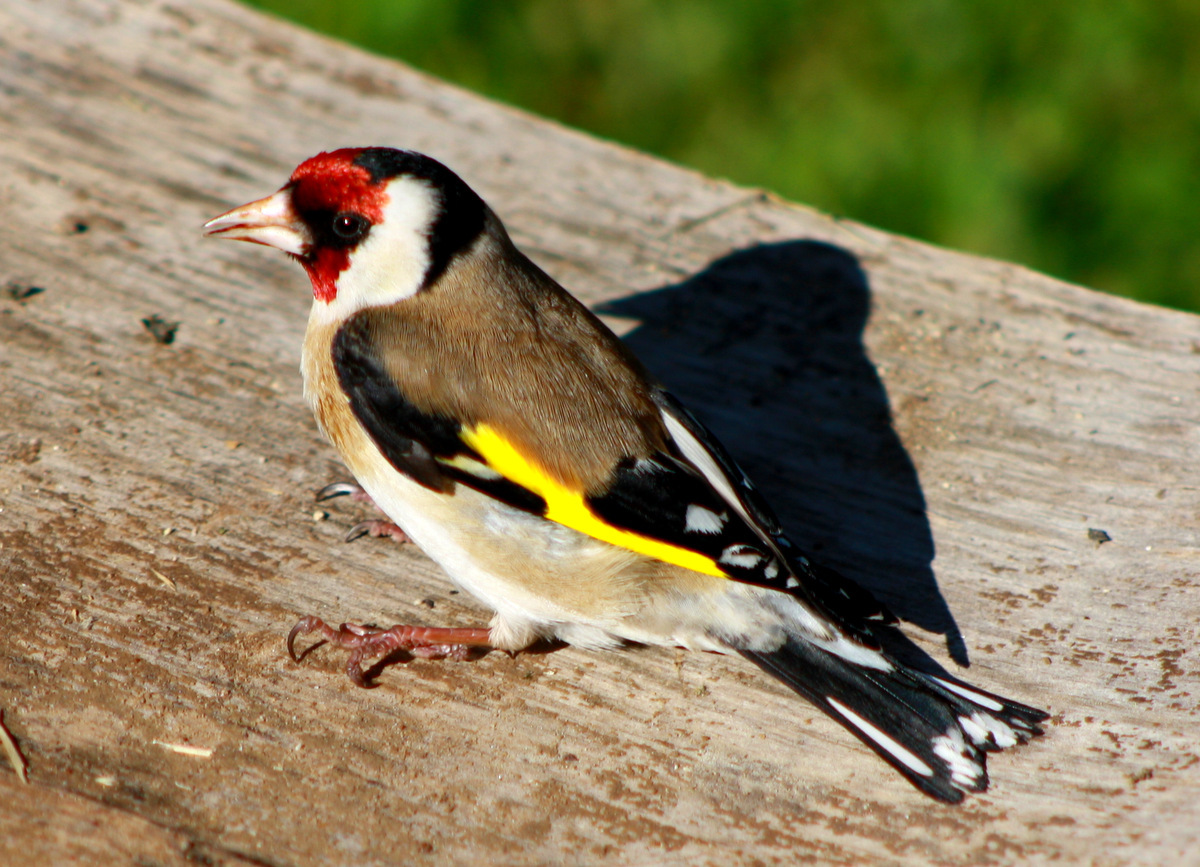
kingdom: Animalia
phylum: Chordata
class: Aves
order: Passeriformes
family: Fringillidae
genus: Carduelis
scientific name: Carduelis carduelis
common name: European goldfinch
